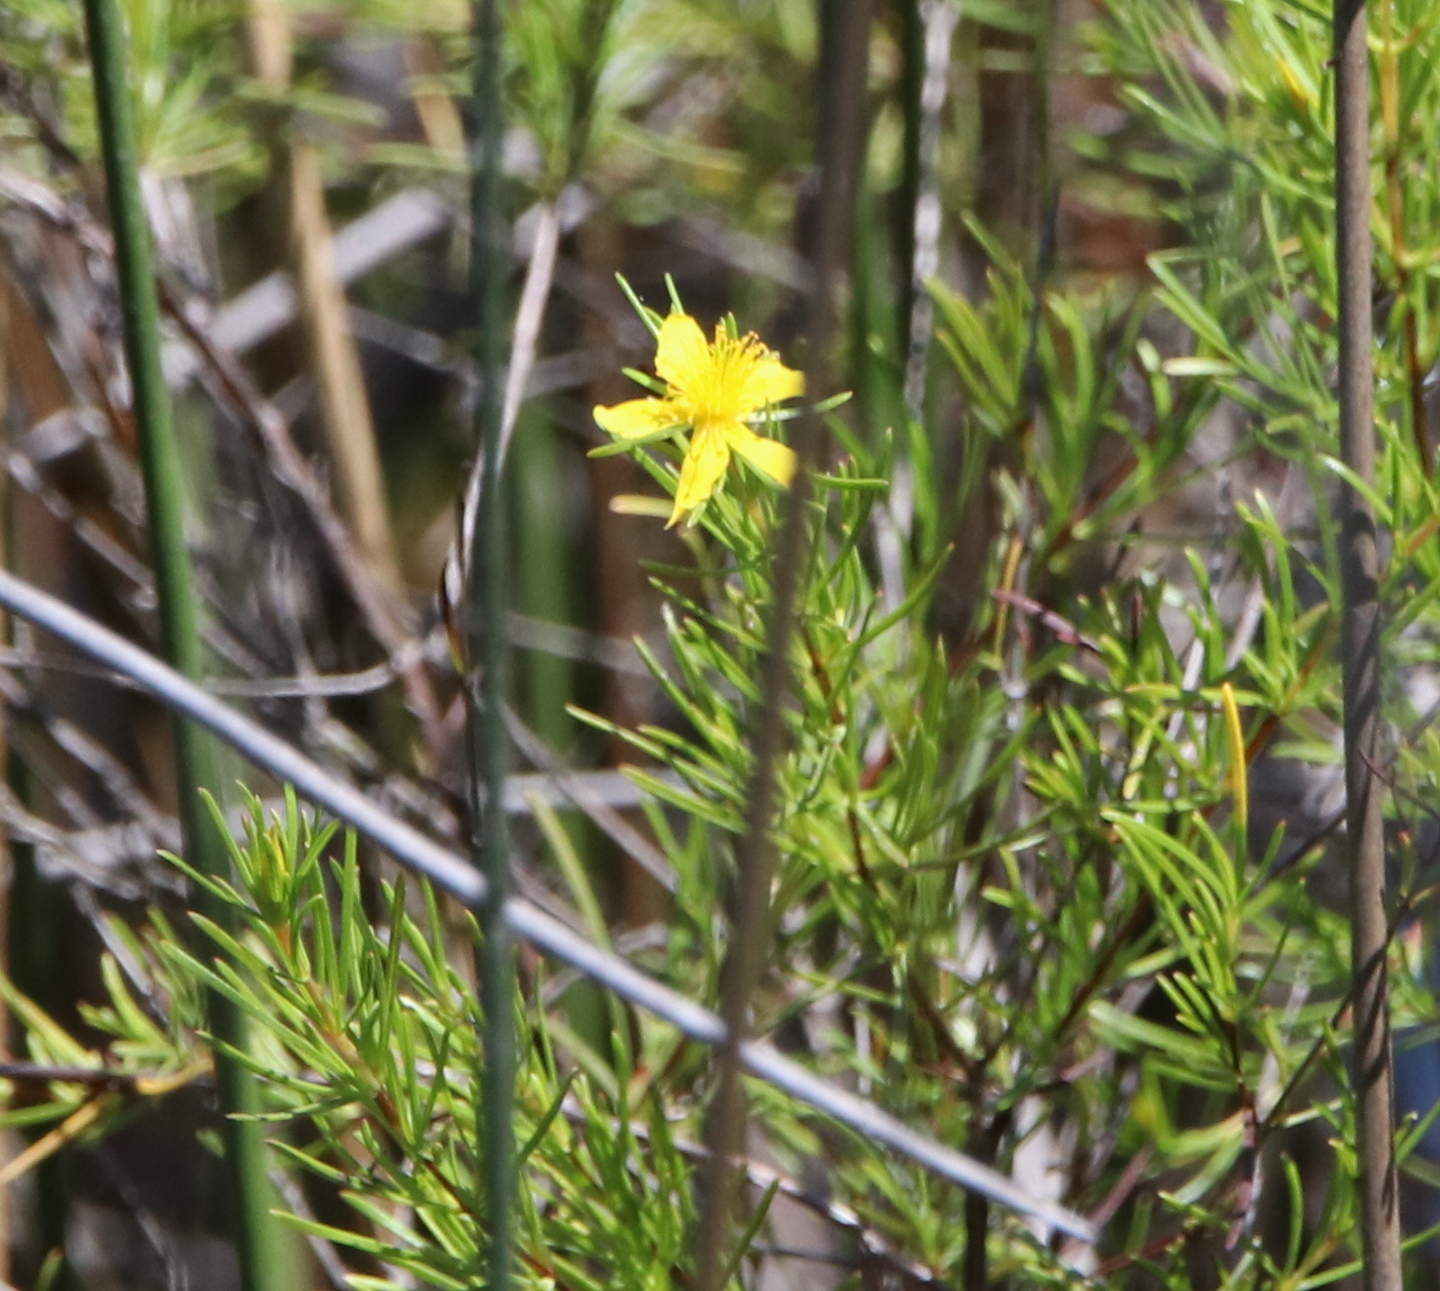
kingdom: Plantae
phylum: Tracheophyta
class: Magnoliopsida
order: Malpighiales
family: Hypericaceae
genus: Hypericum
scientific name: Hypericum fasciculatum
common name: Peelbark st. john's wort
